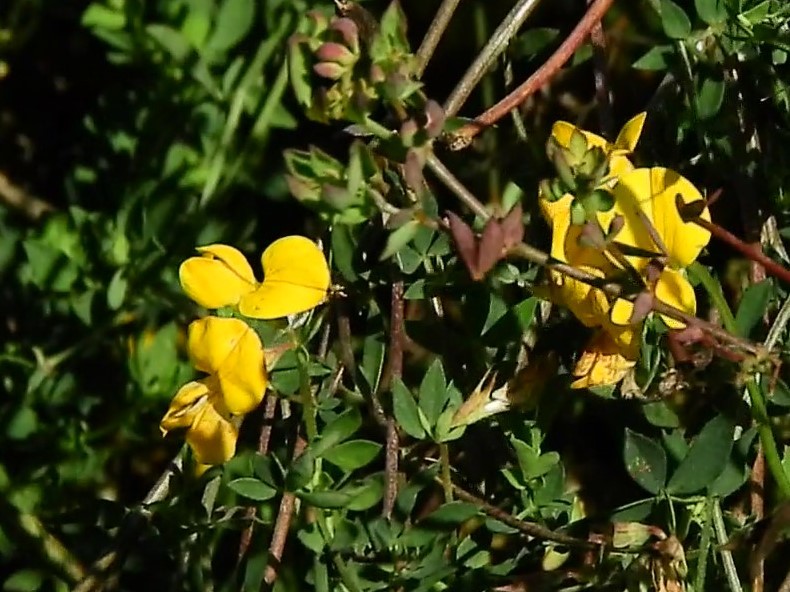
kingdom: Plantae
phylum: Tracheophyta
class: Magnoliopsida
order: Fabales
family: Fabaceae
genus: Lotus
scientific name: Lotus corniculatus
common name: Common bird's-foot-trefoil
